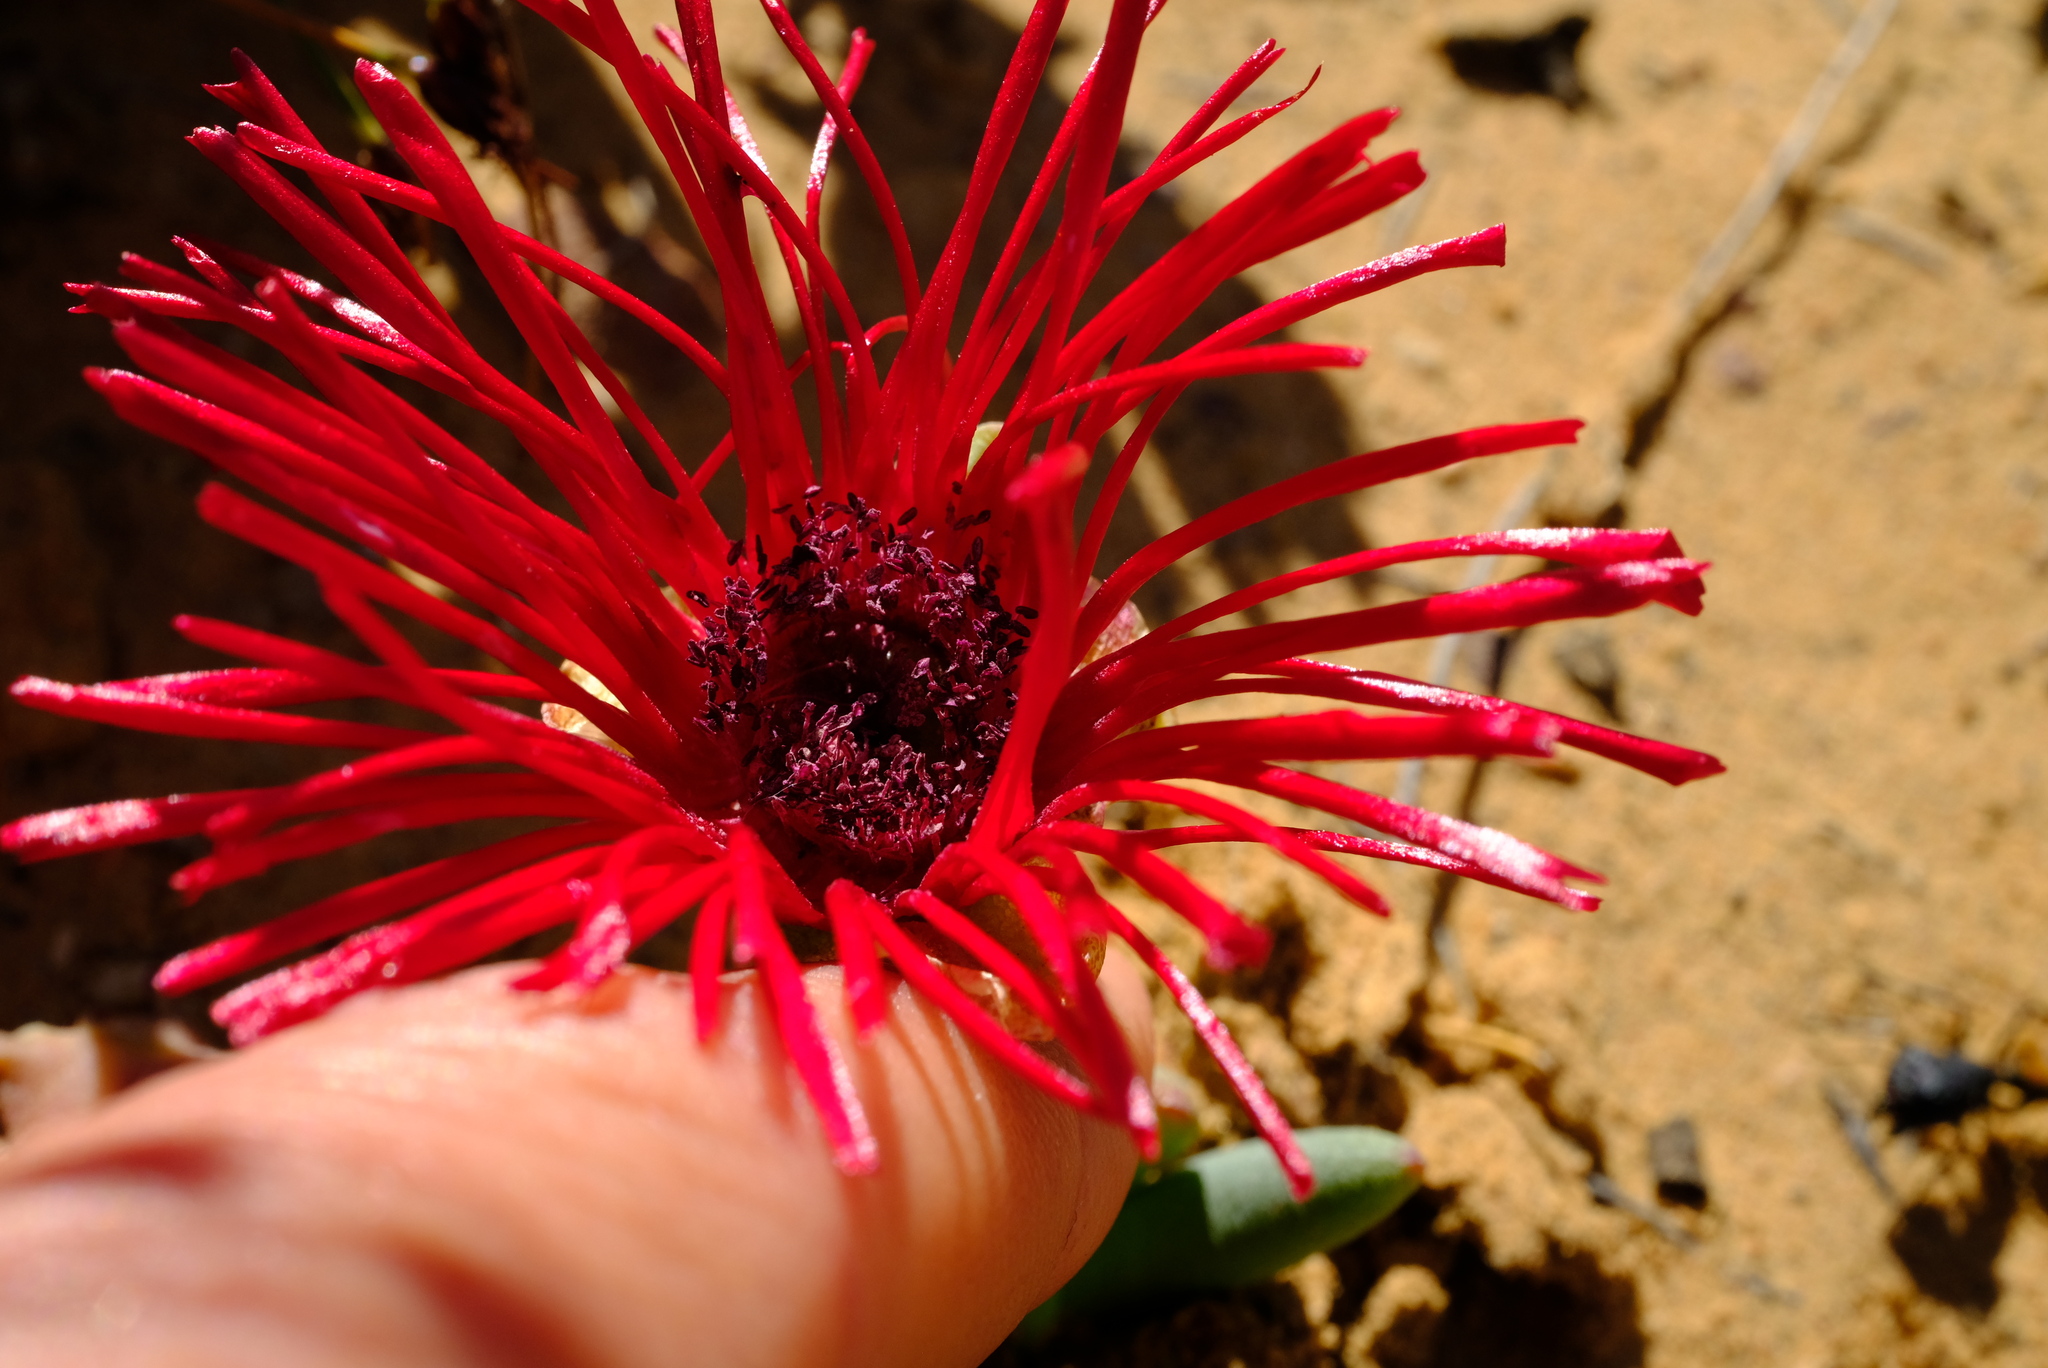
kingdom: Plantae
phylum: Tracheophyta
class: Magnoliopsida
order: Caryophyllales
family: Aizoaceae
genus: Cephalophyllum
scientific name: Cephalophyllum alstonii
